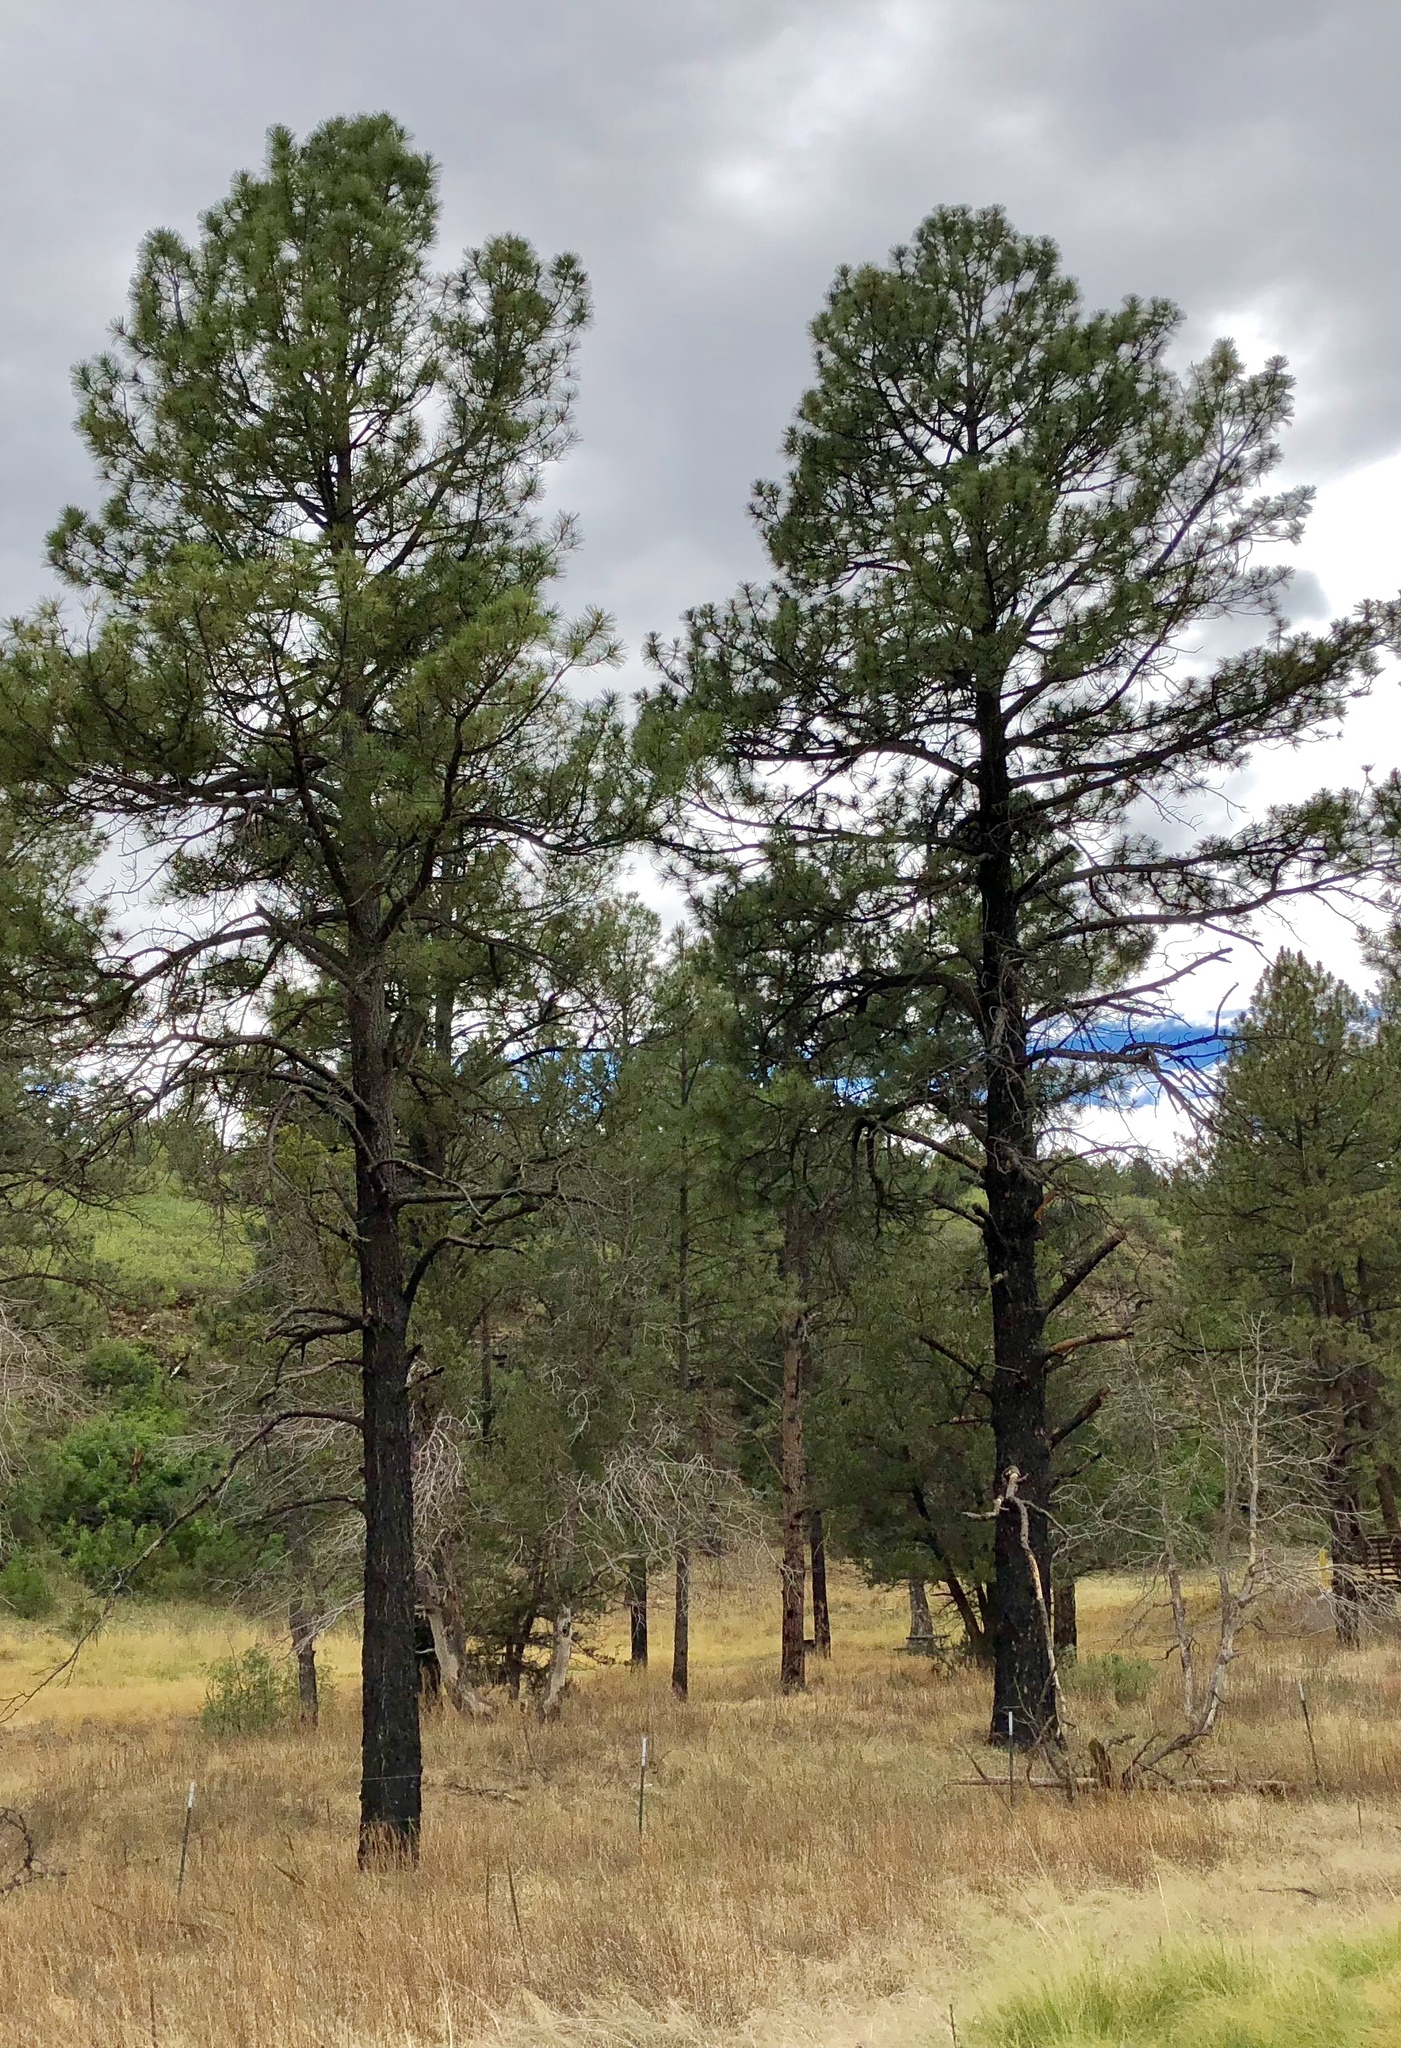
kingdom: Plantae
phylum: Tracheophyta
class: Pinopsida
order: Pinales
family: Pinaceae
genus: Pinus
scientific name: Pinus ponderosa
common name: Western yellow-pine
